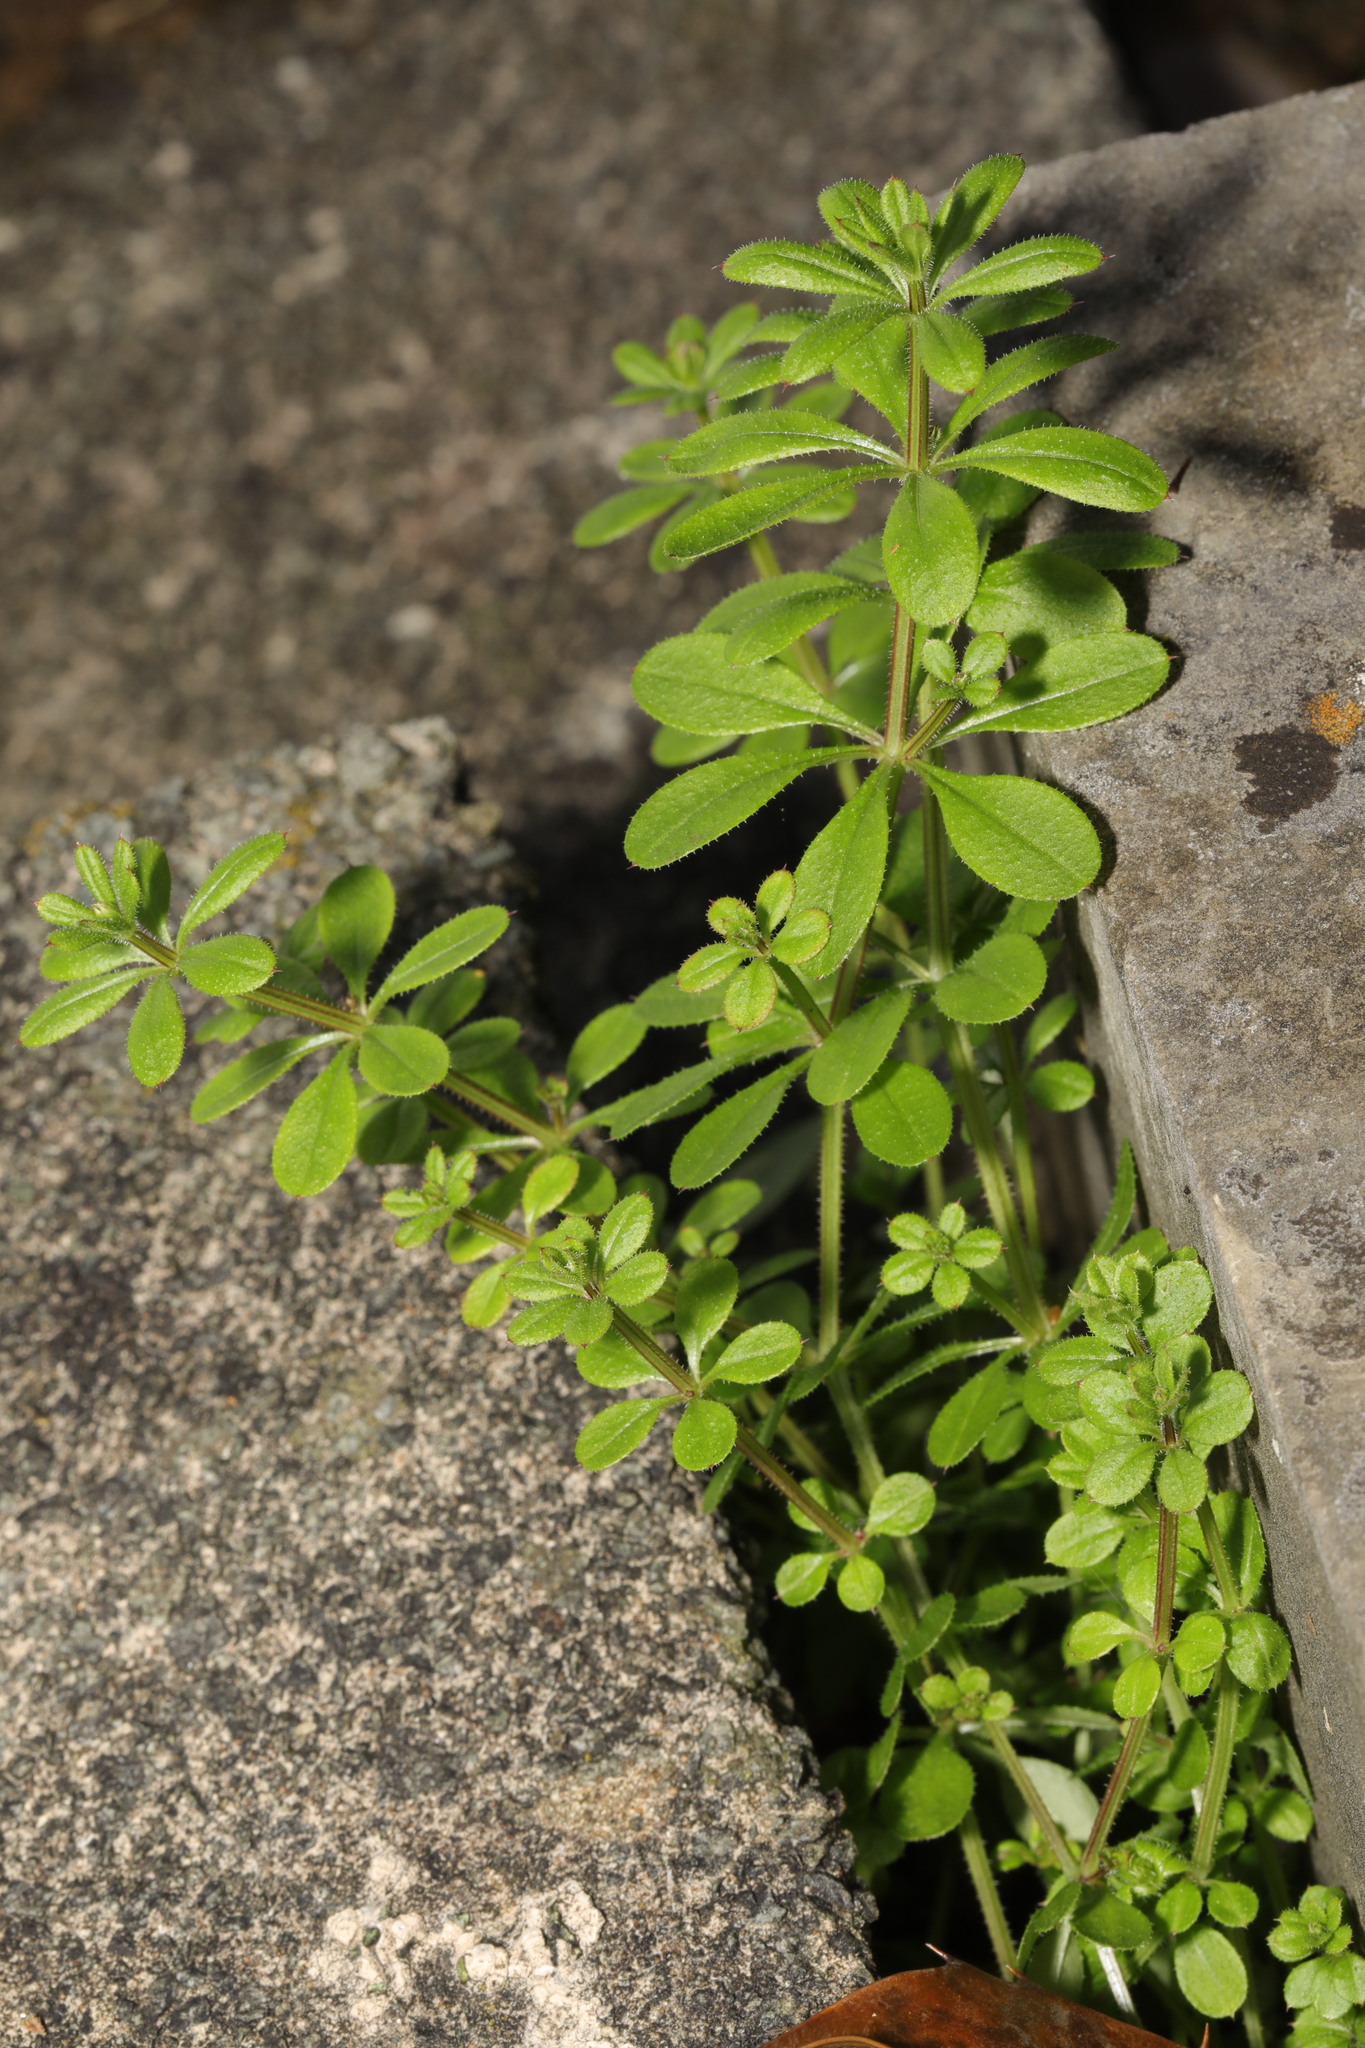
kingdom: Plantae
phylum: Tracheophyta
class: Magnoliopsida
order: Gentianales
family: Rubiaceae
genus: Galium
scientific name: Galium aparine
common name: Cleavers
